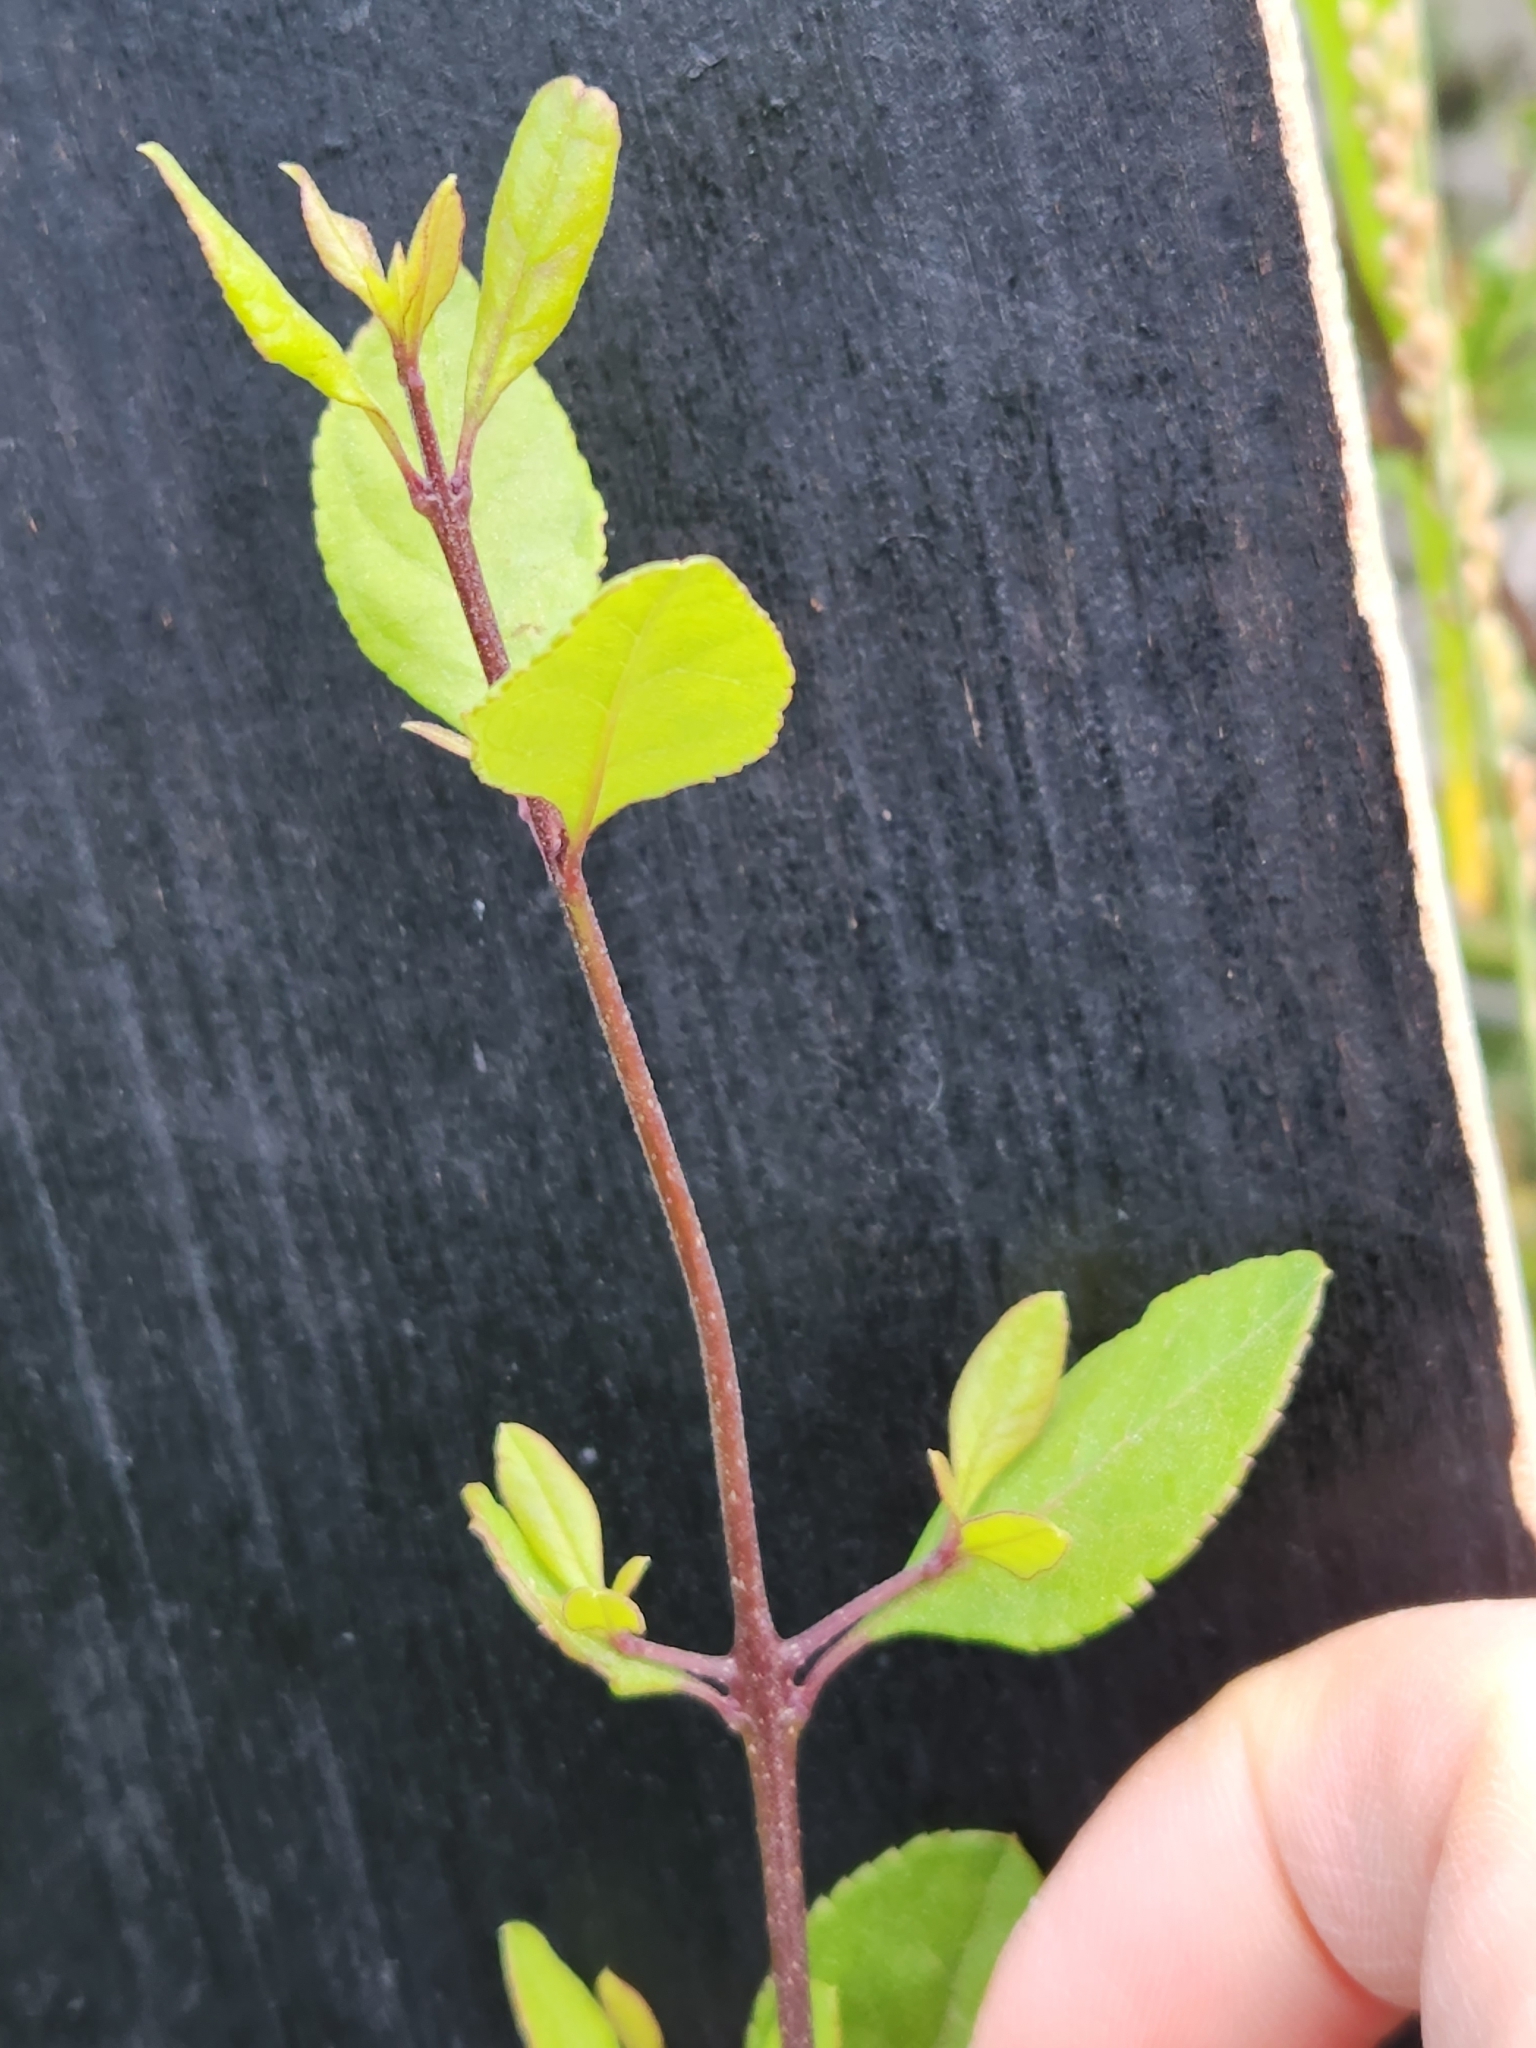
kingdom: Plantae
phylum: Tracheophyta
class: Magnoliopsida
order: Lamiales
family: Oleaceae
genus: Forestiera
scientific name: Forestiera reticulata
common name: Netleaf swamp-privet
